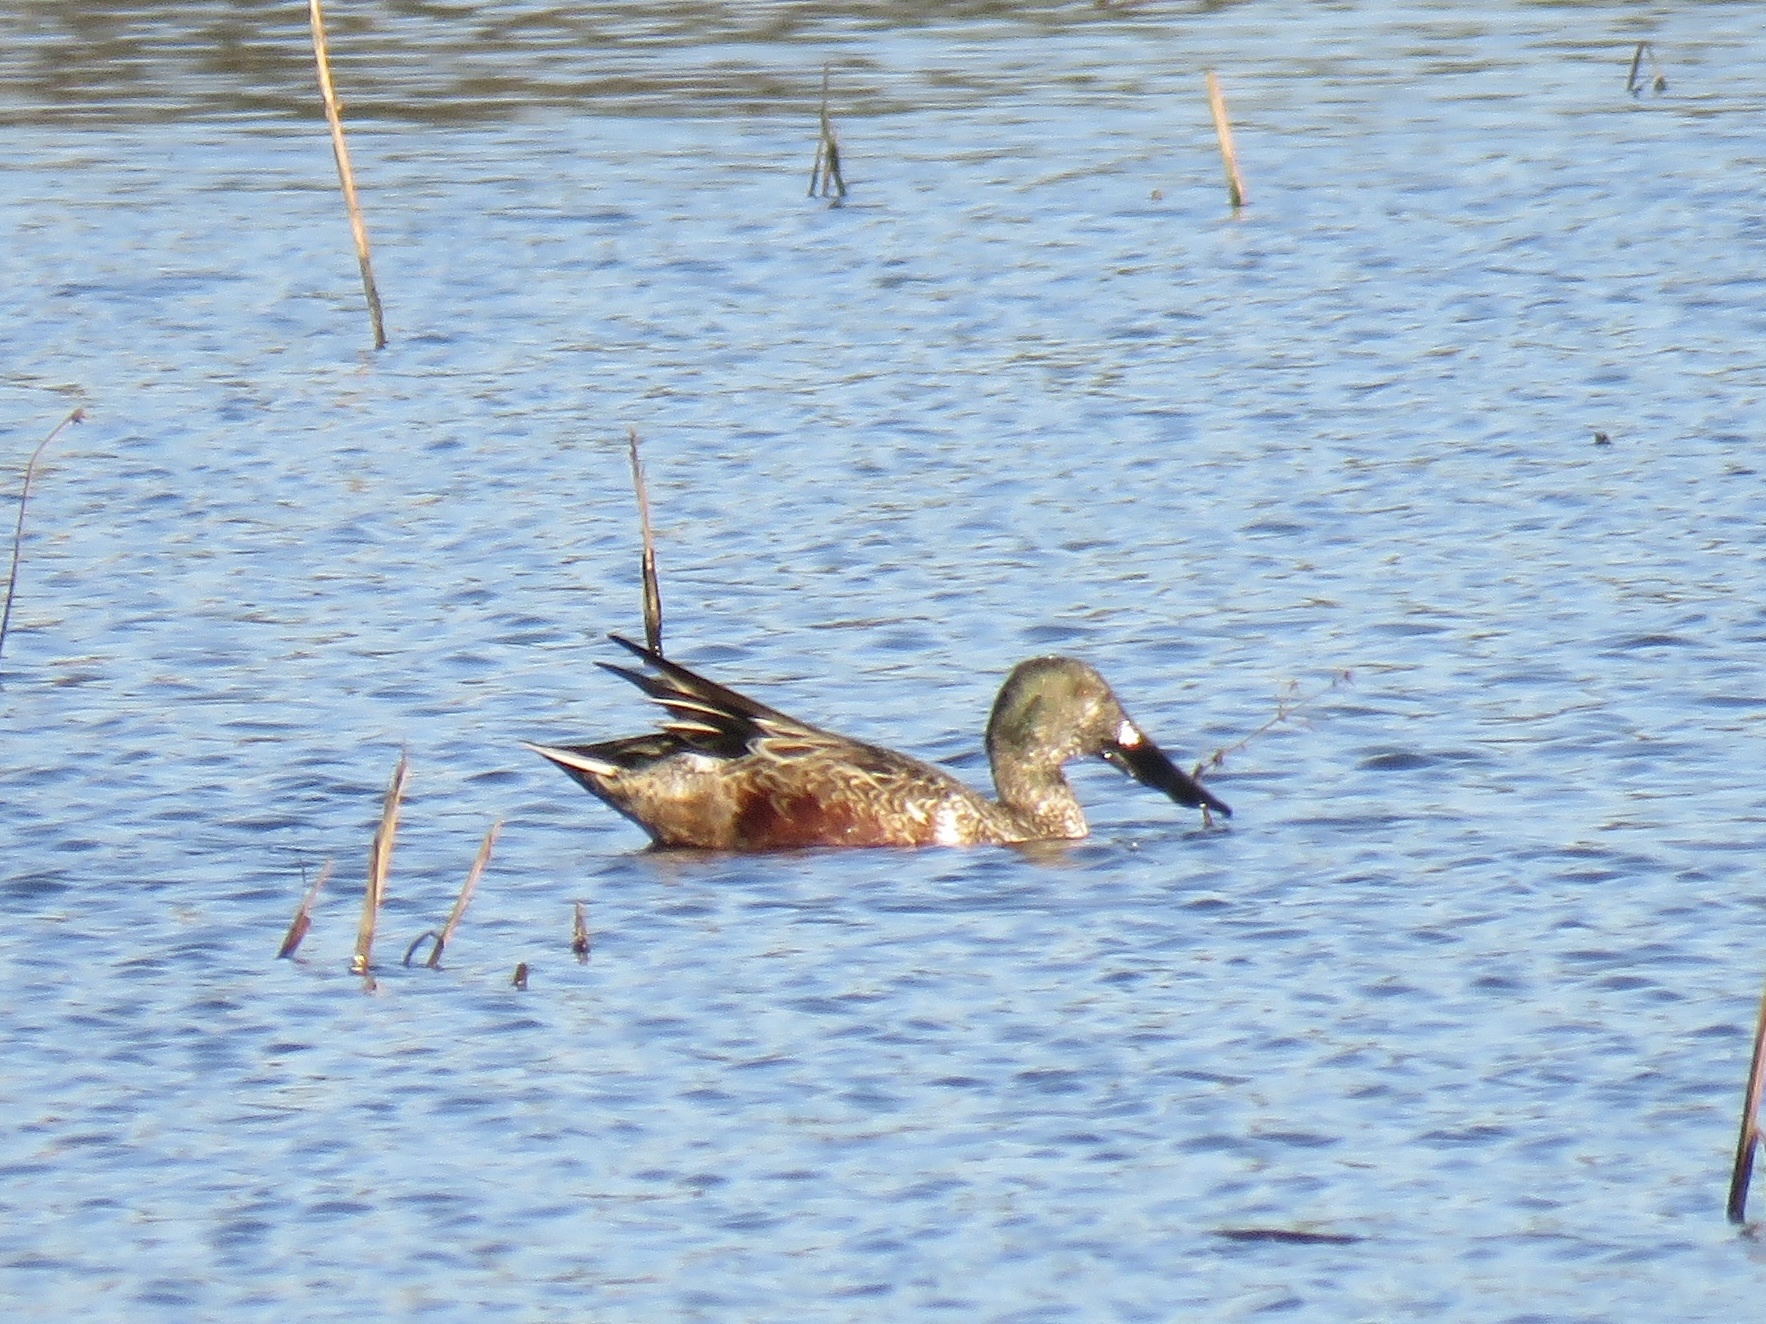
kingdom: Animalia
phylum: Chordata
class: Aves
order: Anseriformes
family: Anatidae
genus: Spatula
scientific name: Spatula clypeata
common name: Northern shoveler
